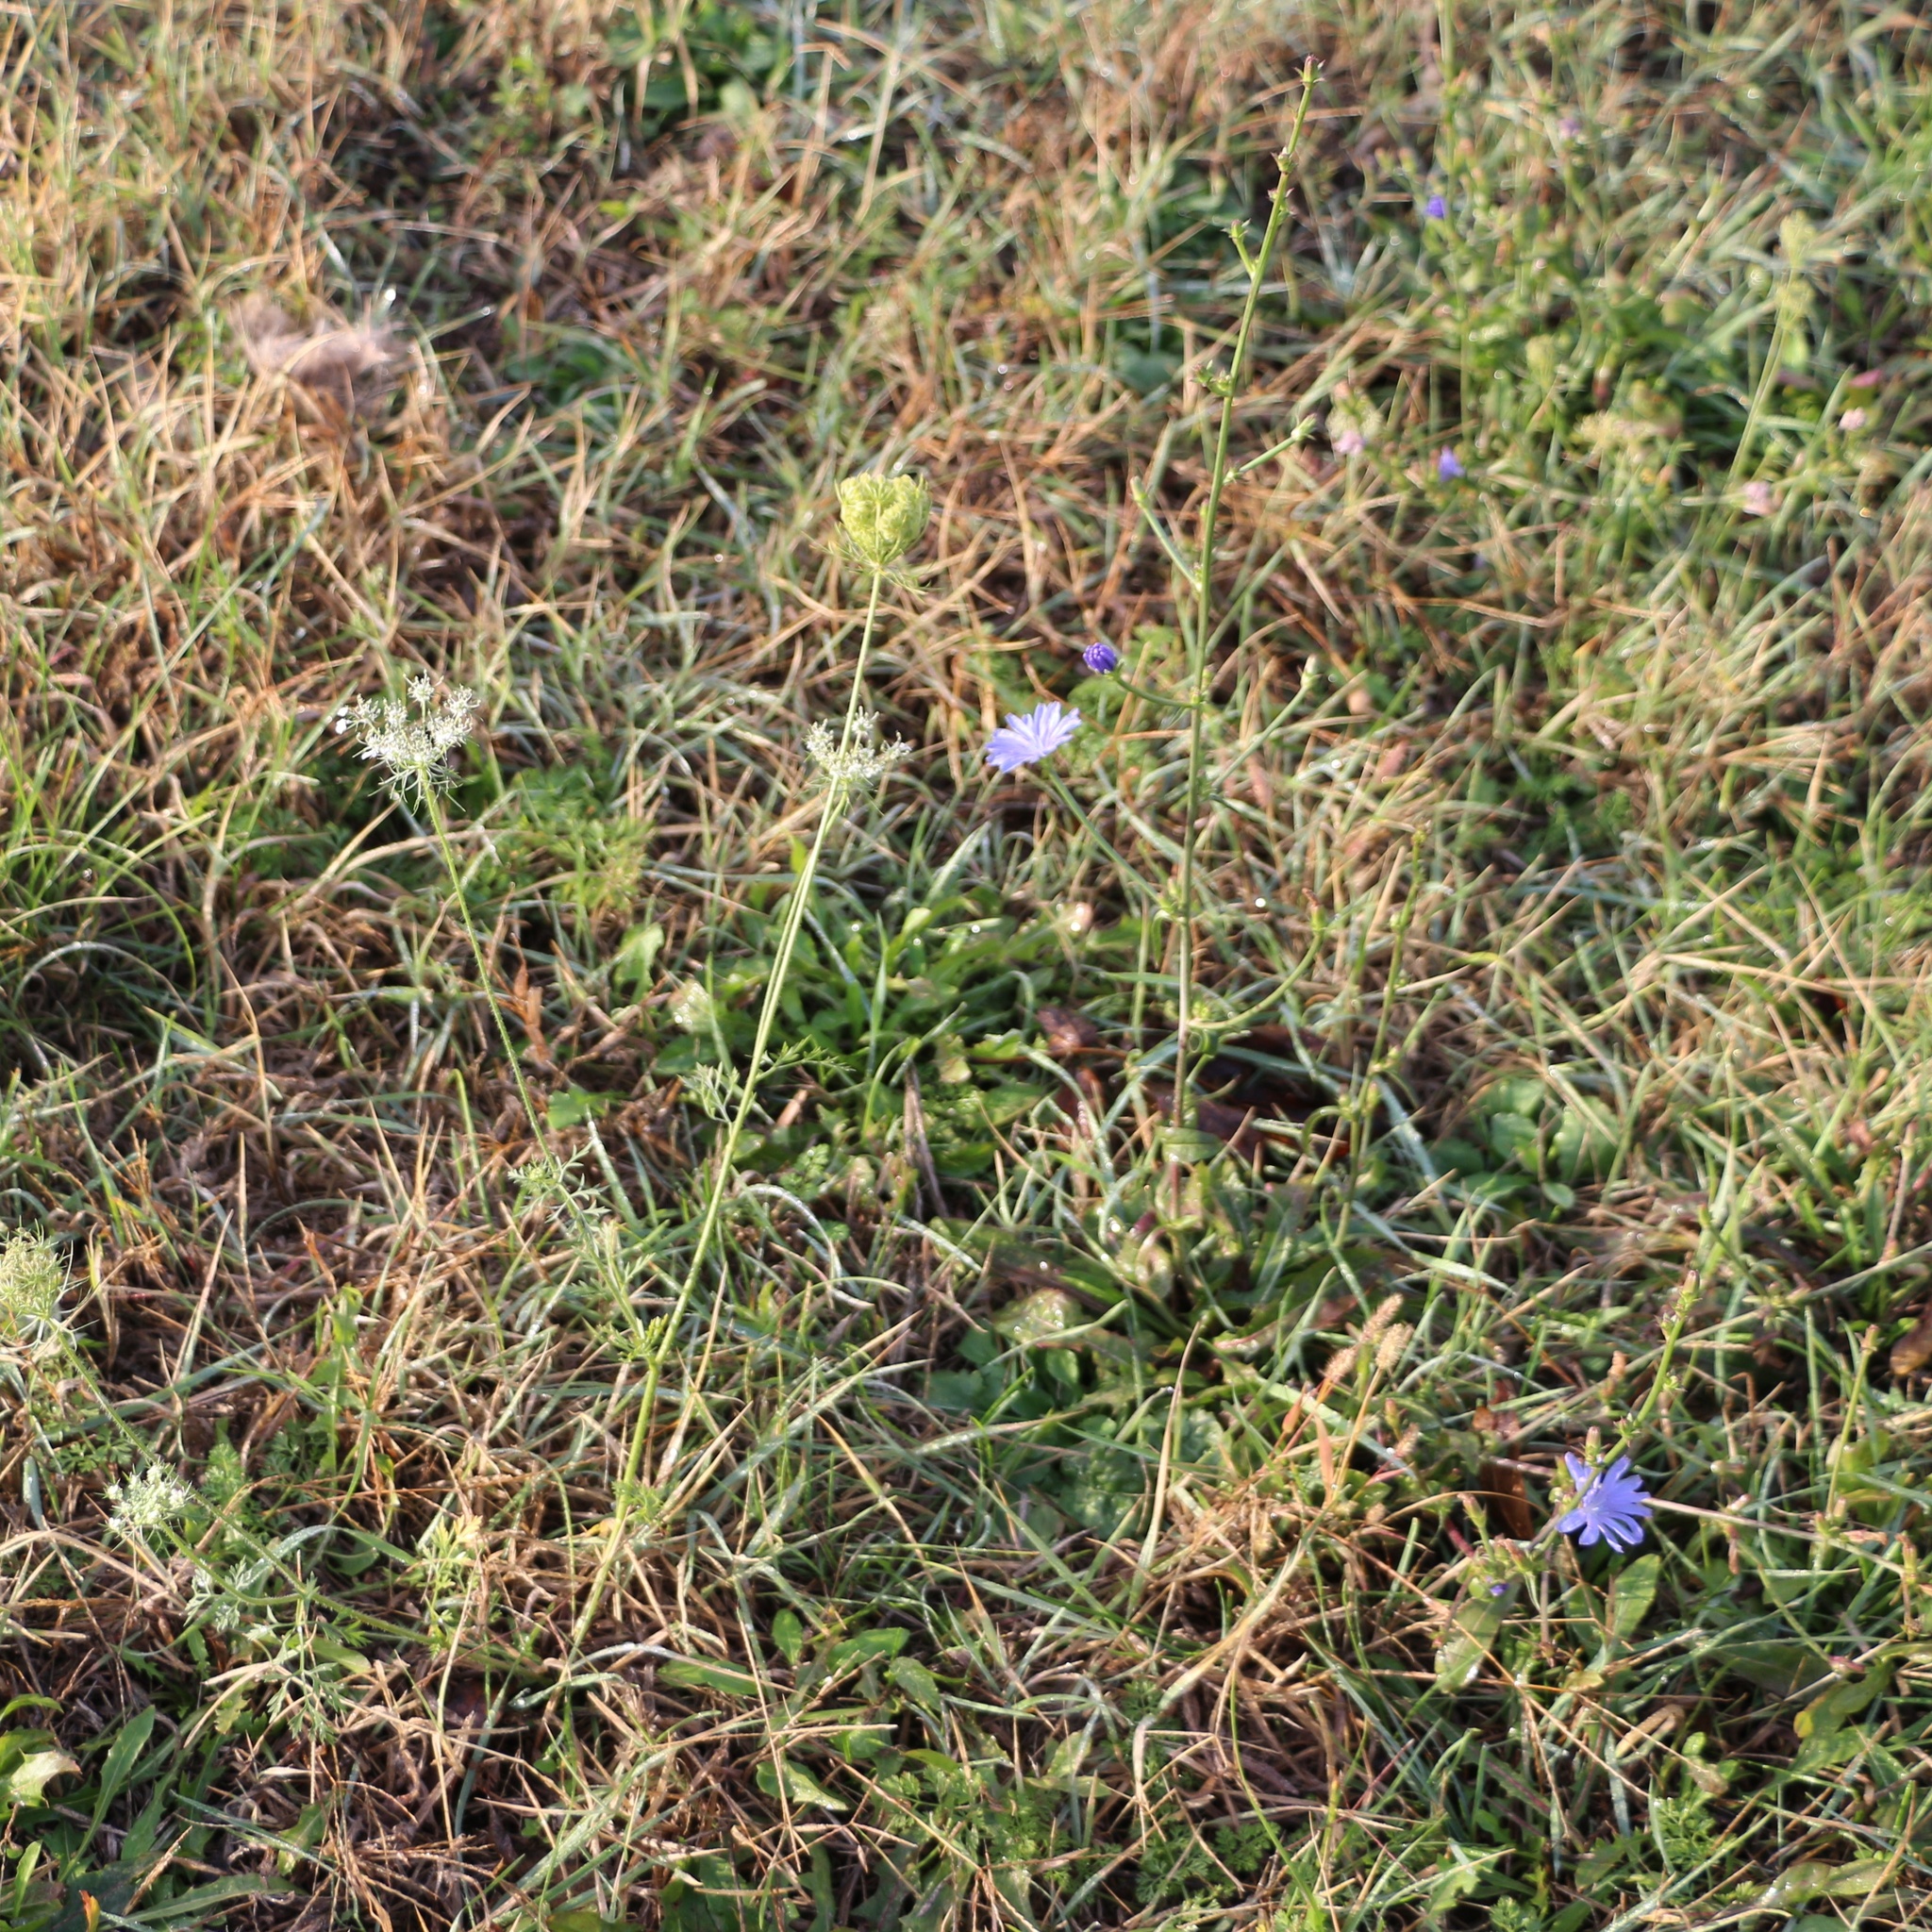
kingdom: Plantae
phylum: Tracheophyta
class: Magnoliopsida
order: Asterales
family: Asteraceae
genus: Cichorium
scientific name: Cichorium intybus
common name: Chicory
